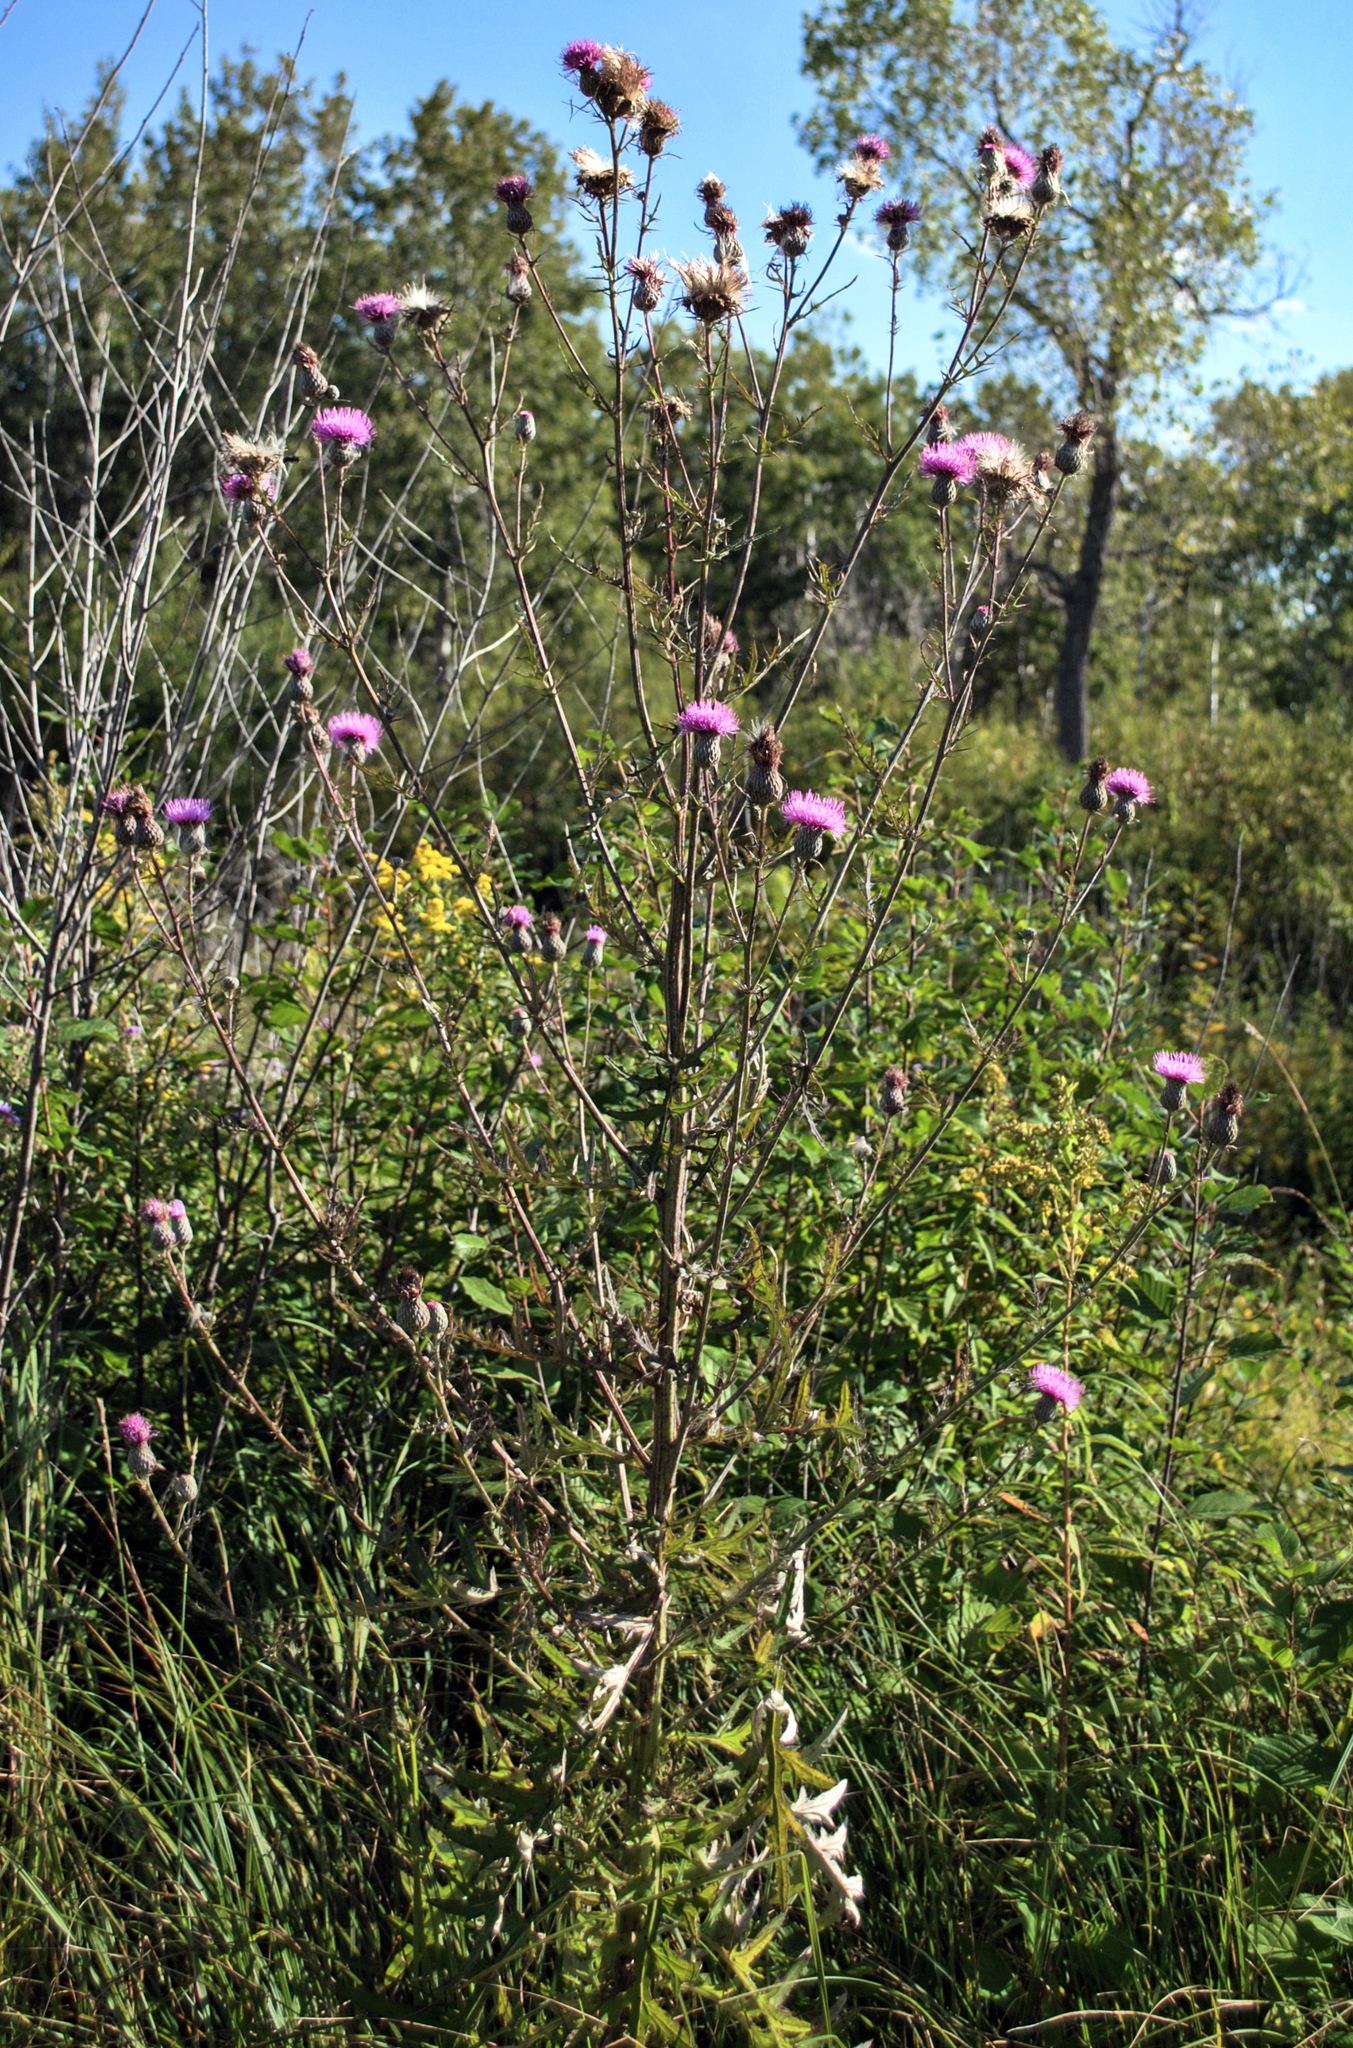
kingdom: Plantae
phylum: Tracheophyta
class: Magnoliopsida
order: Asterales
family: Asteraceae
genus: Cirsium
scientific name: Cirsium muticum
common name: Dunce-nettle
